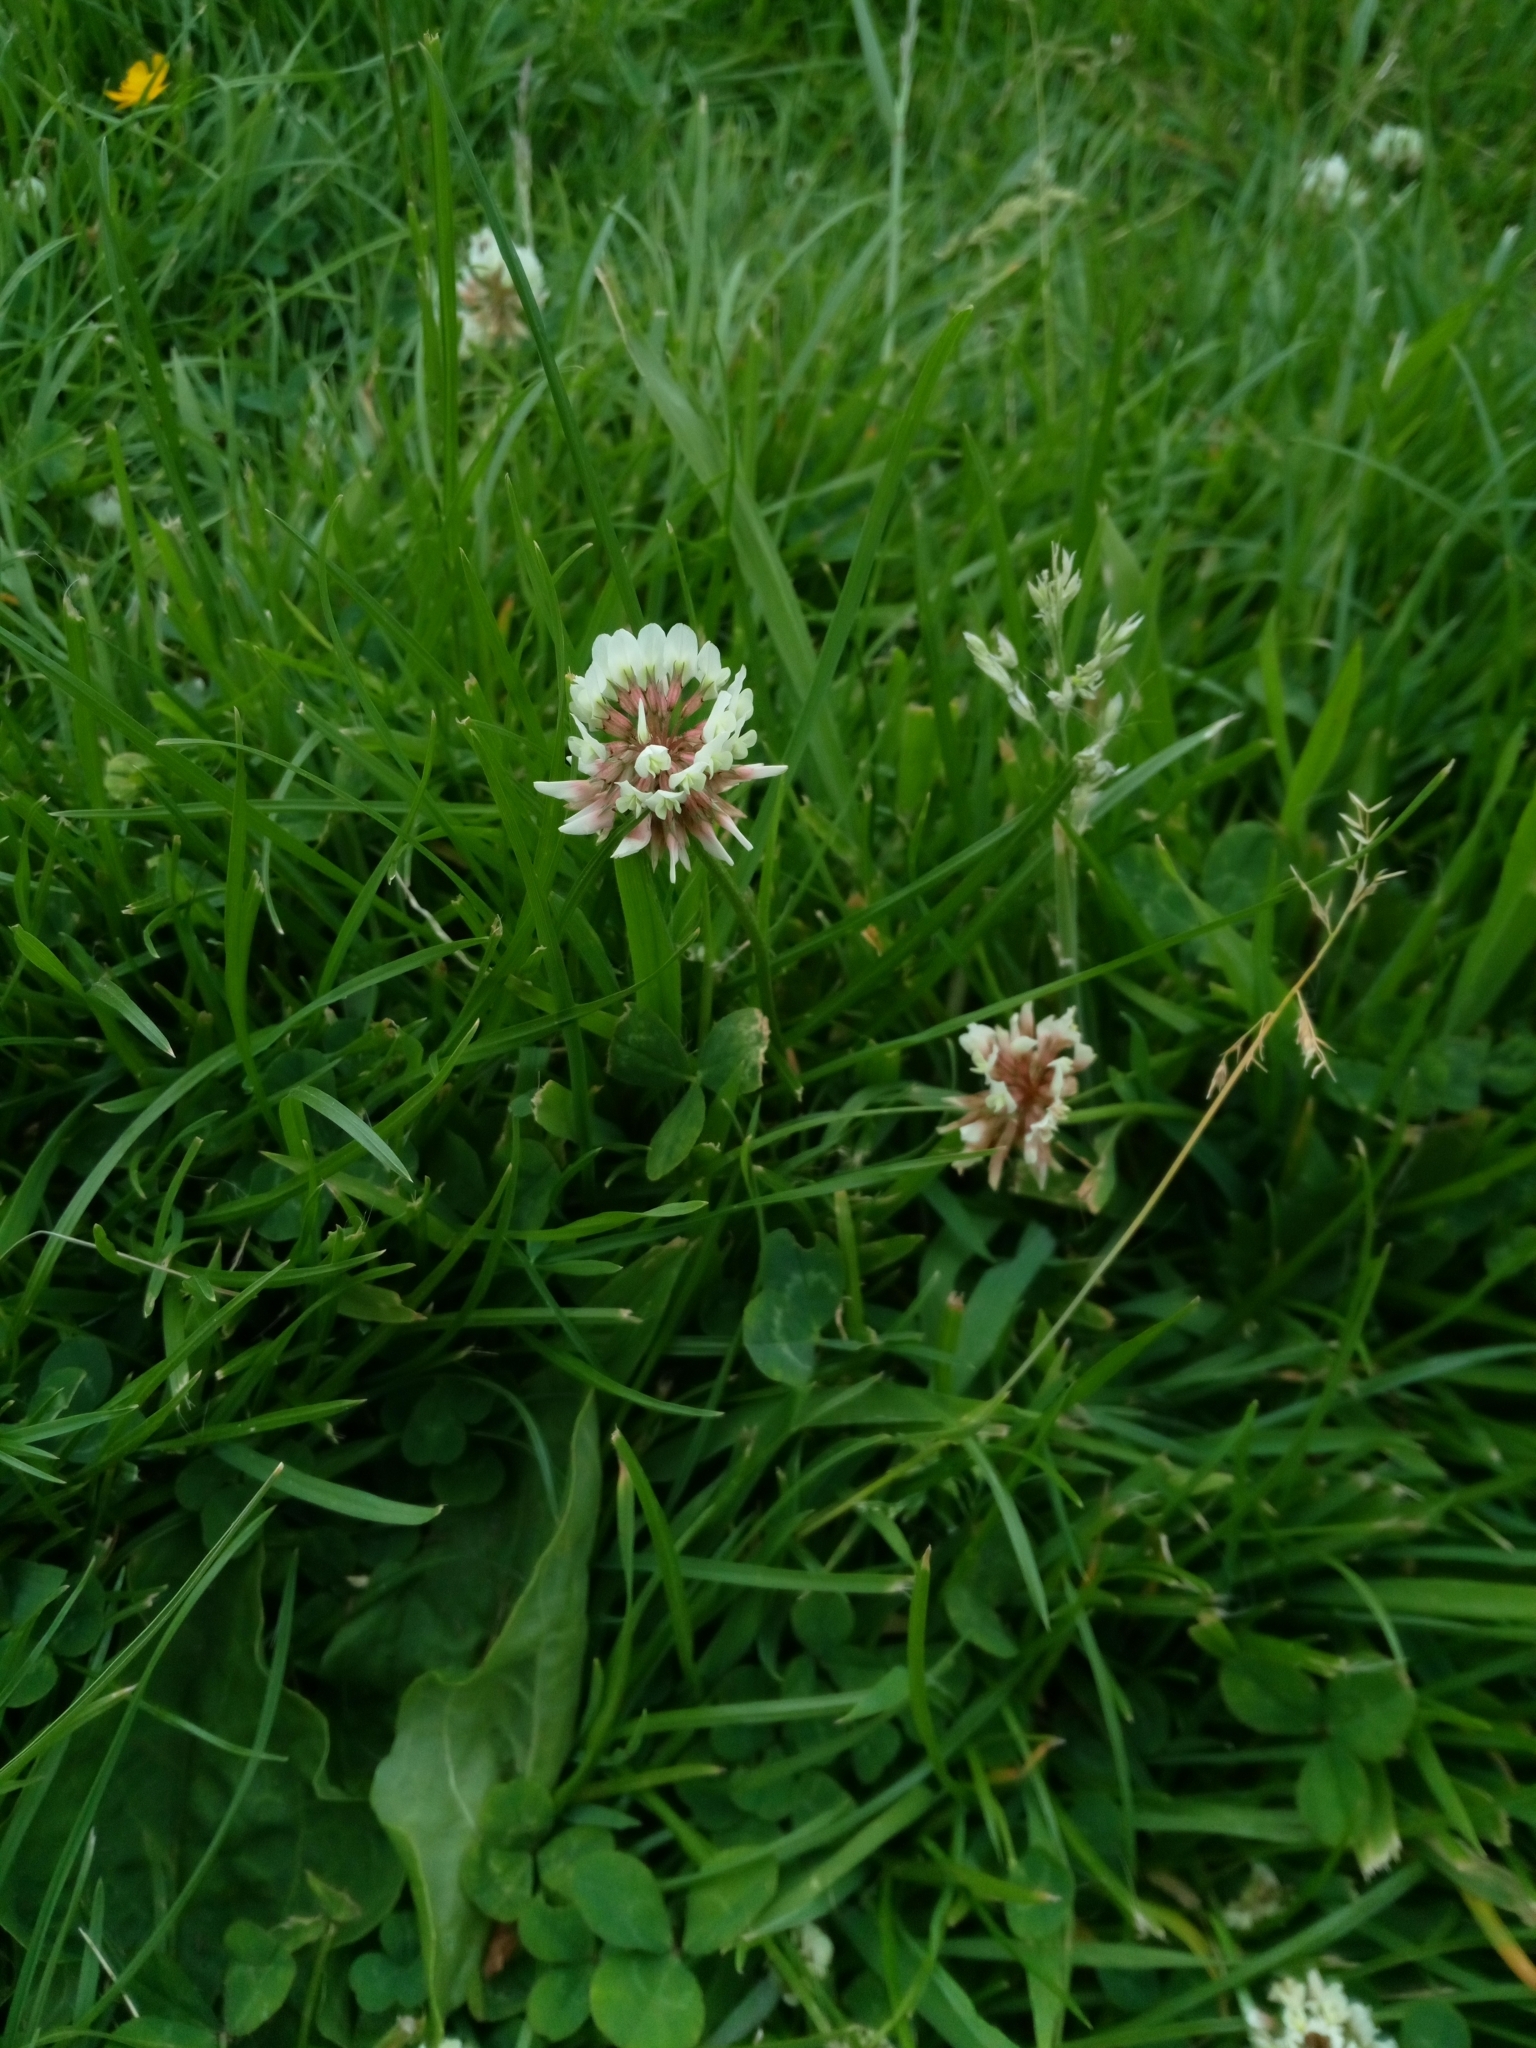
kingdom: Plantae
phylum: Tracheophyta
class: Magnoliopsida
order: Fabales
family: Fabaceae
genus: Trifolium
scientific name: Trifolium repens
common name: White clover
